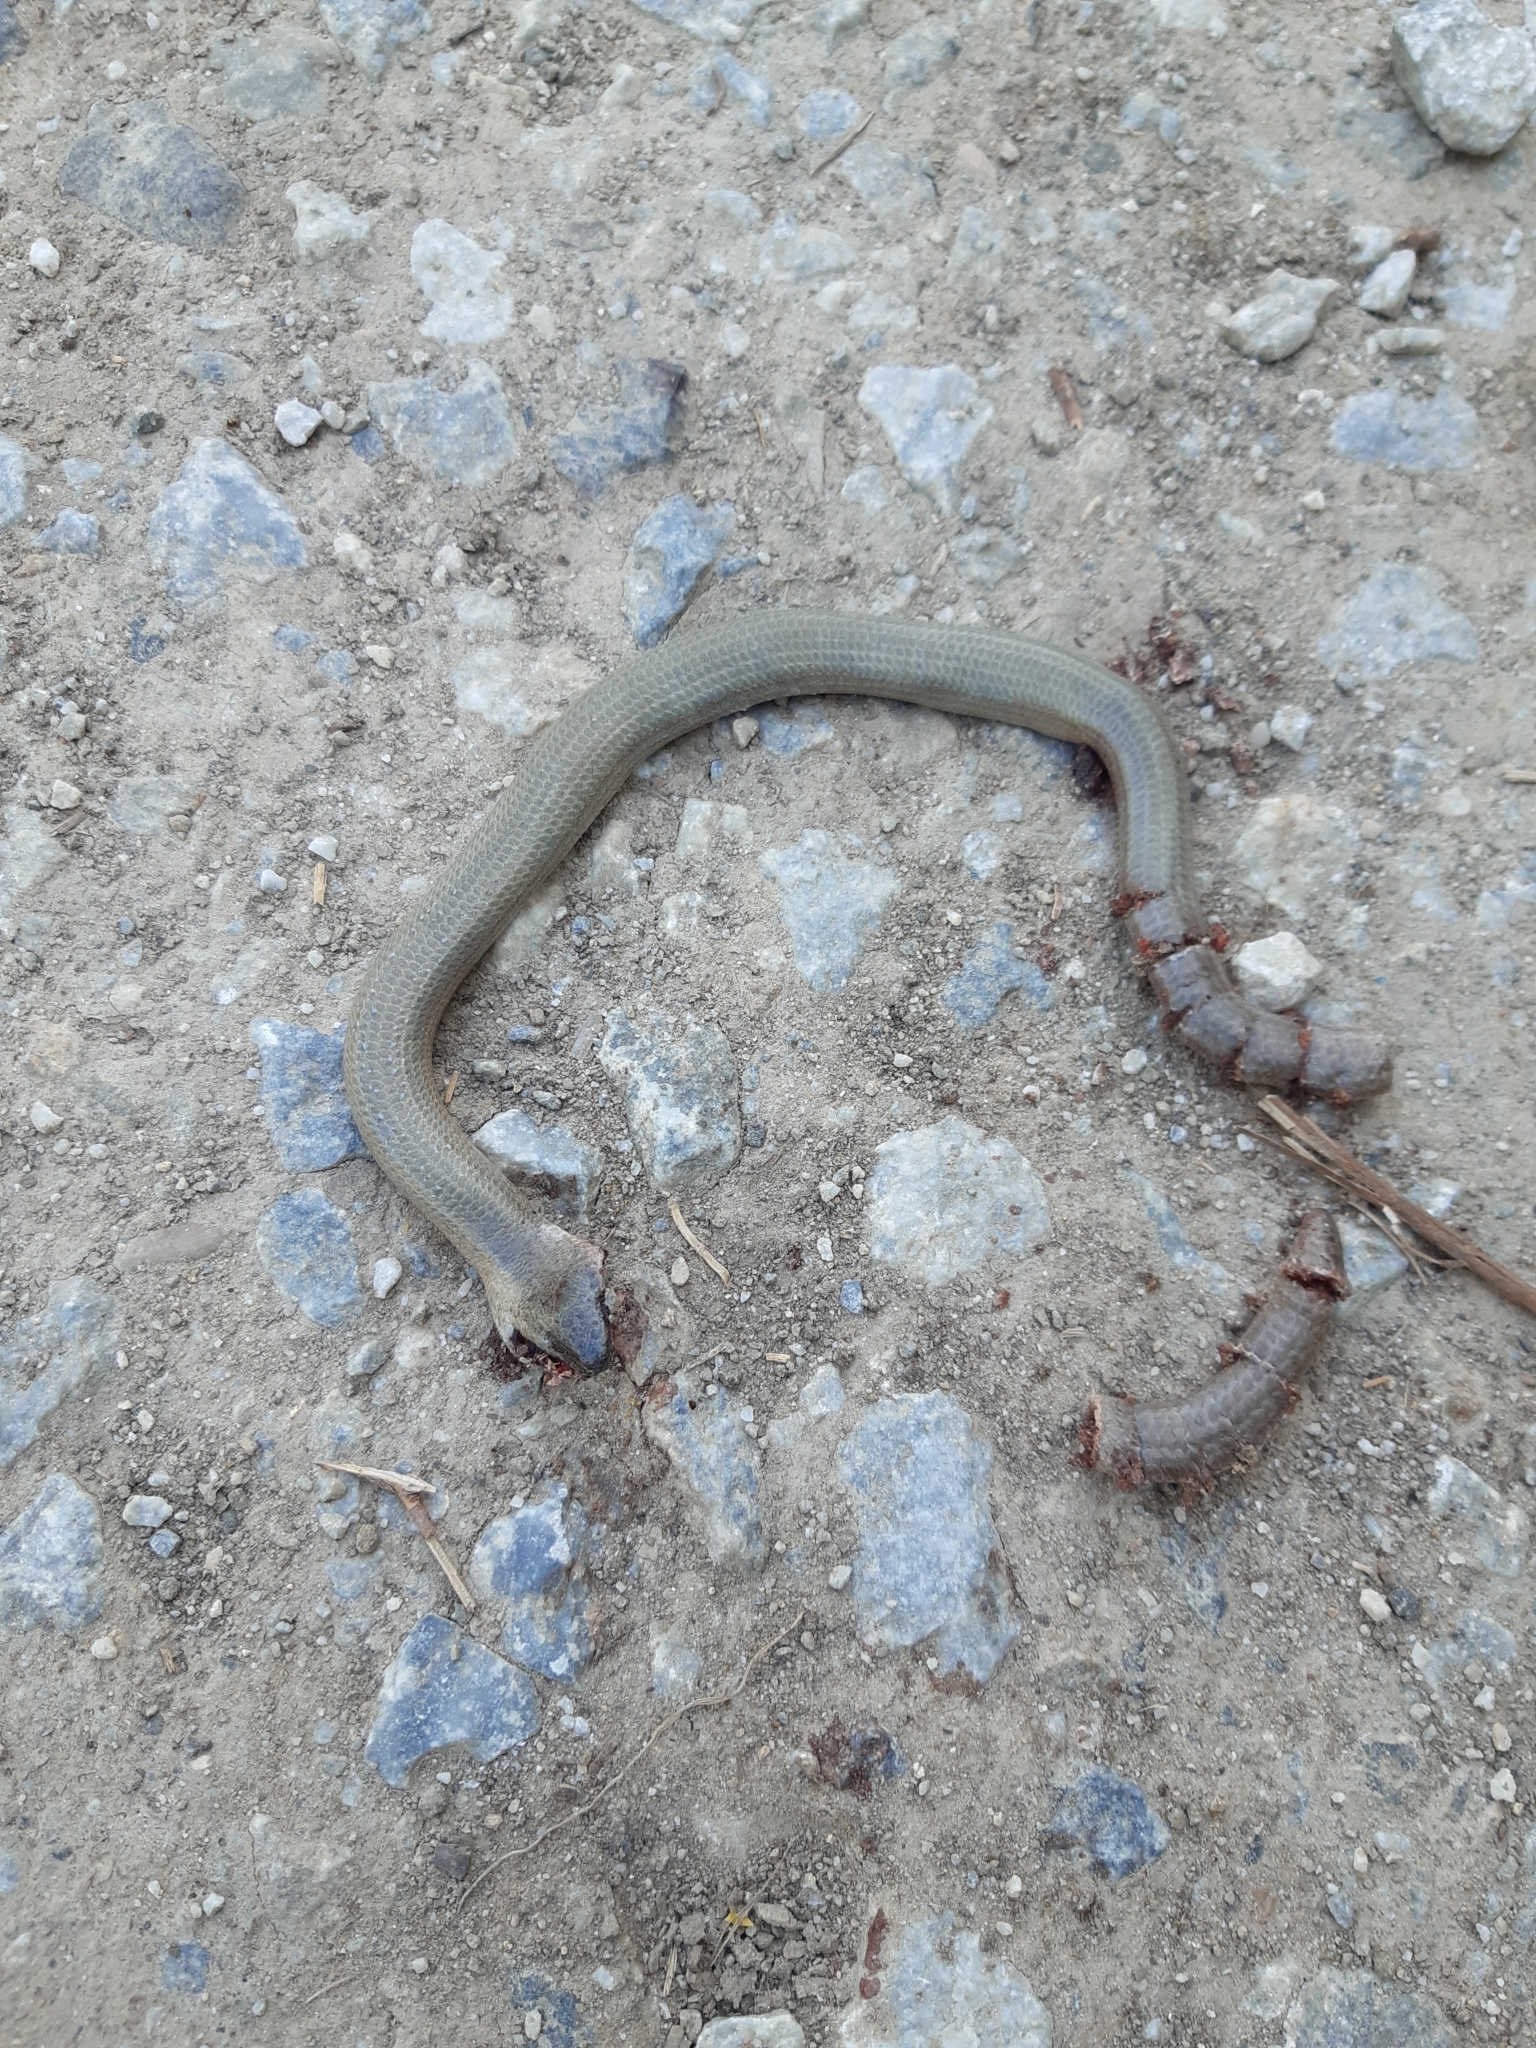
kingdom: Animalia
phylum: Chordata
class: Squamata
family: Anguidae
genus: Anguis
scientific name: Anguis fragilis
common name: Slow worm
